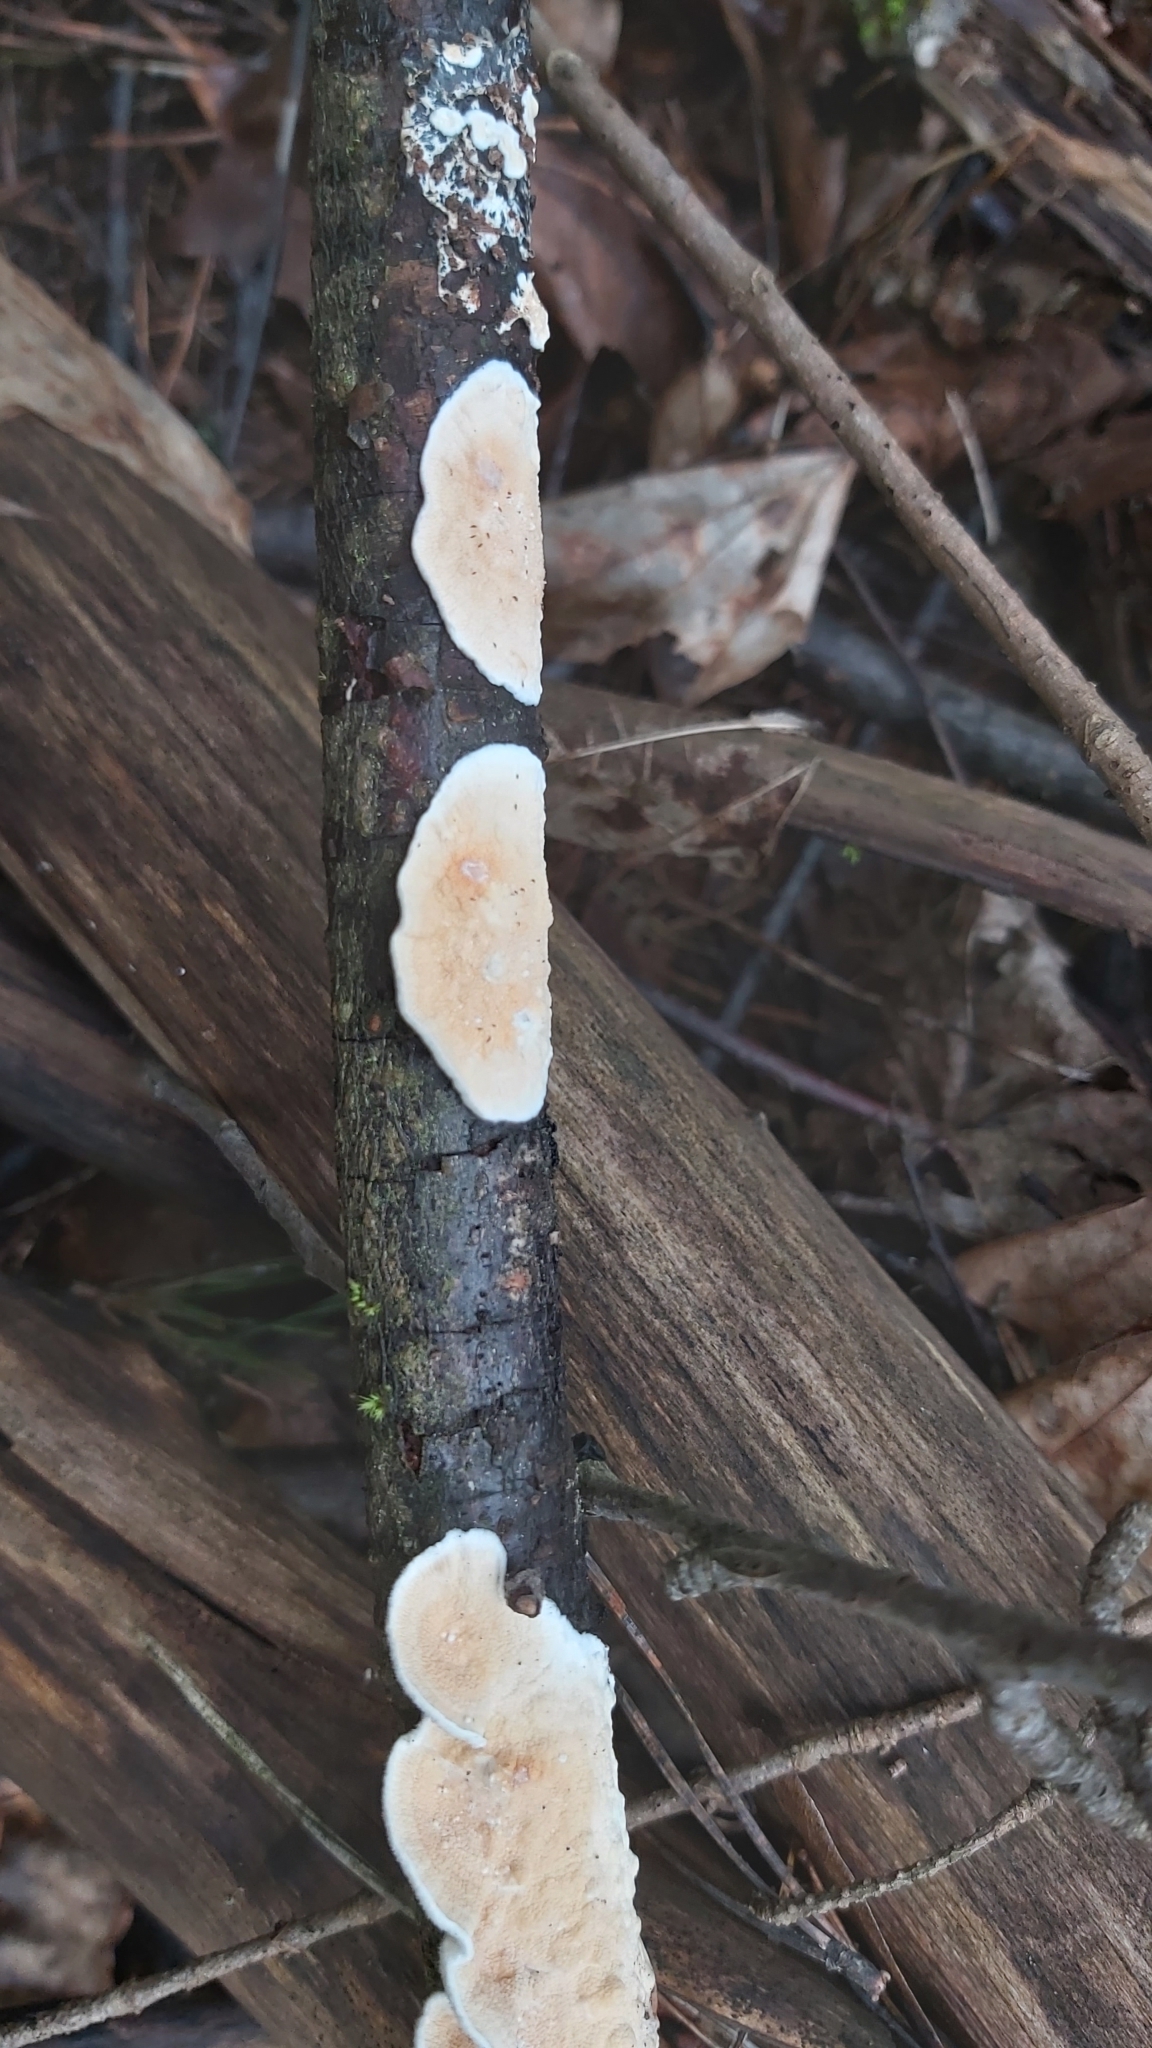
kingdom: Fungi
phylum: Basidiomycota
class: Agaricomycetes
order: Polyporales
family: Irpicaceae
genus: Byssomerulius
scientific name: Byssomerulius corium
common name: Netted crust
